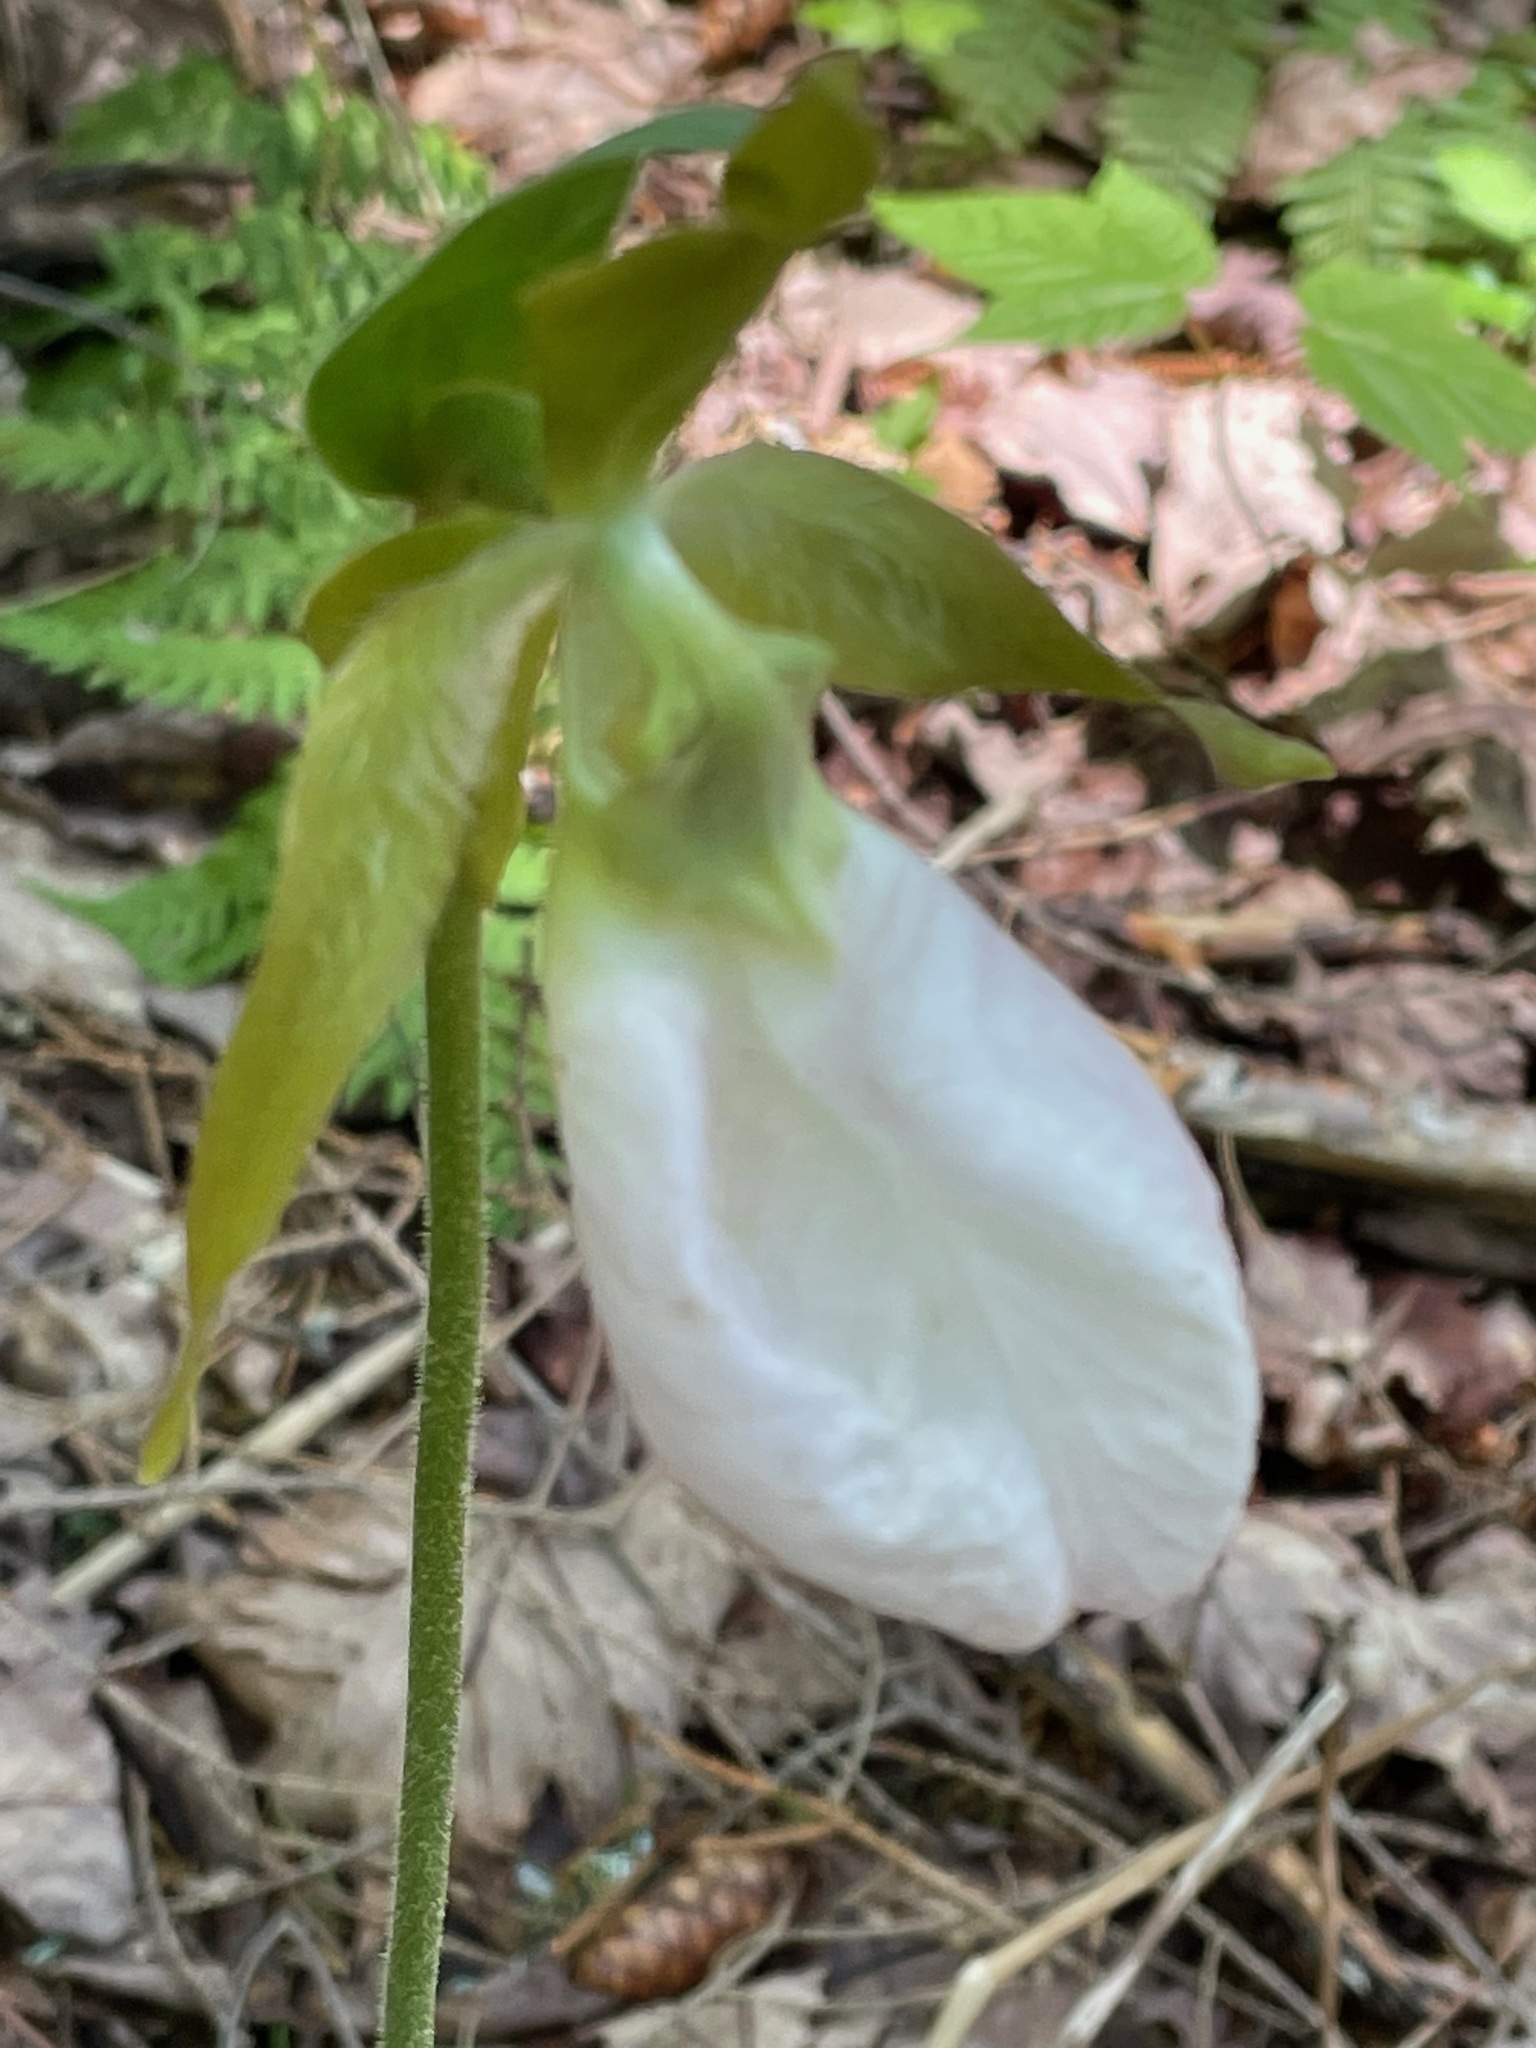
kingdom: Plantae
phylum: Tracheophyta
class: Liliopsida
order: Asparagales
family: Orchidaceae
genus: Cypripedium
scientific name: Cypripedium acaule
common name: Pink lady's-slipper
